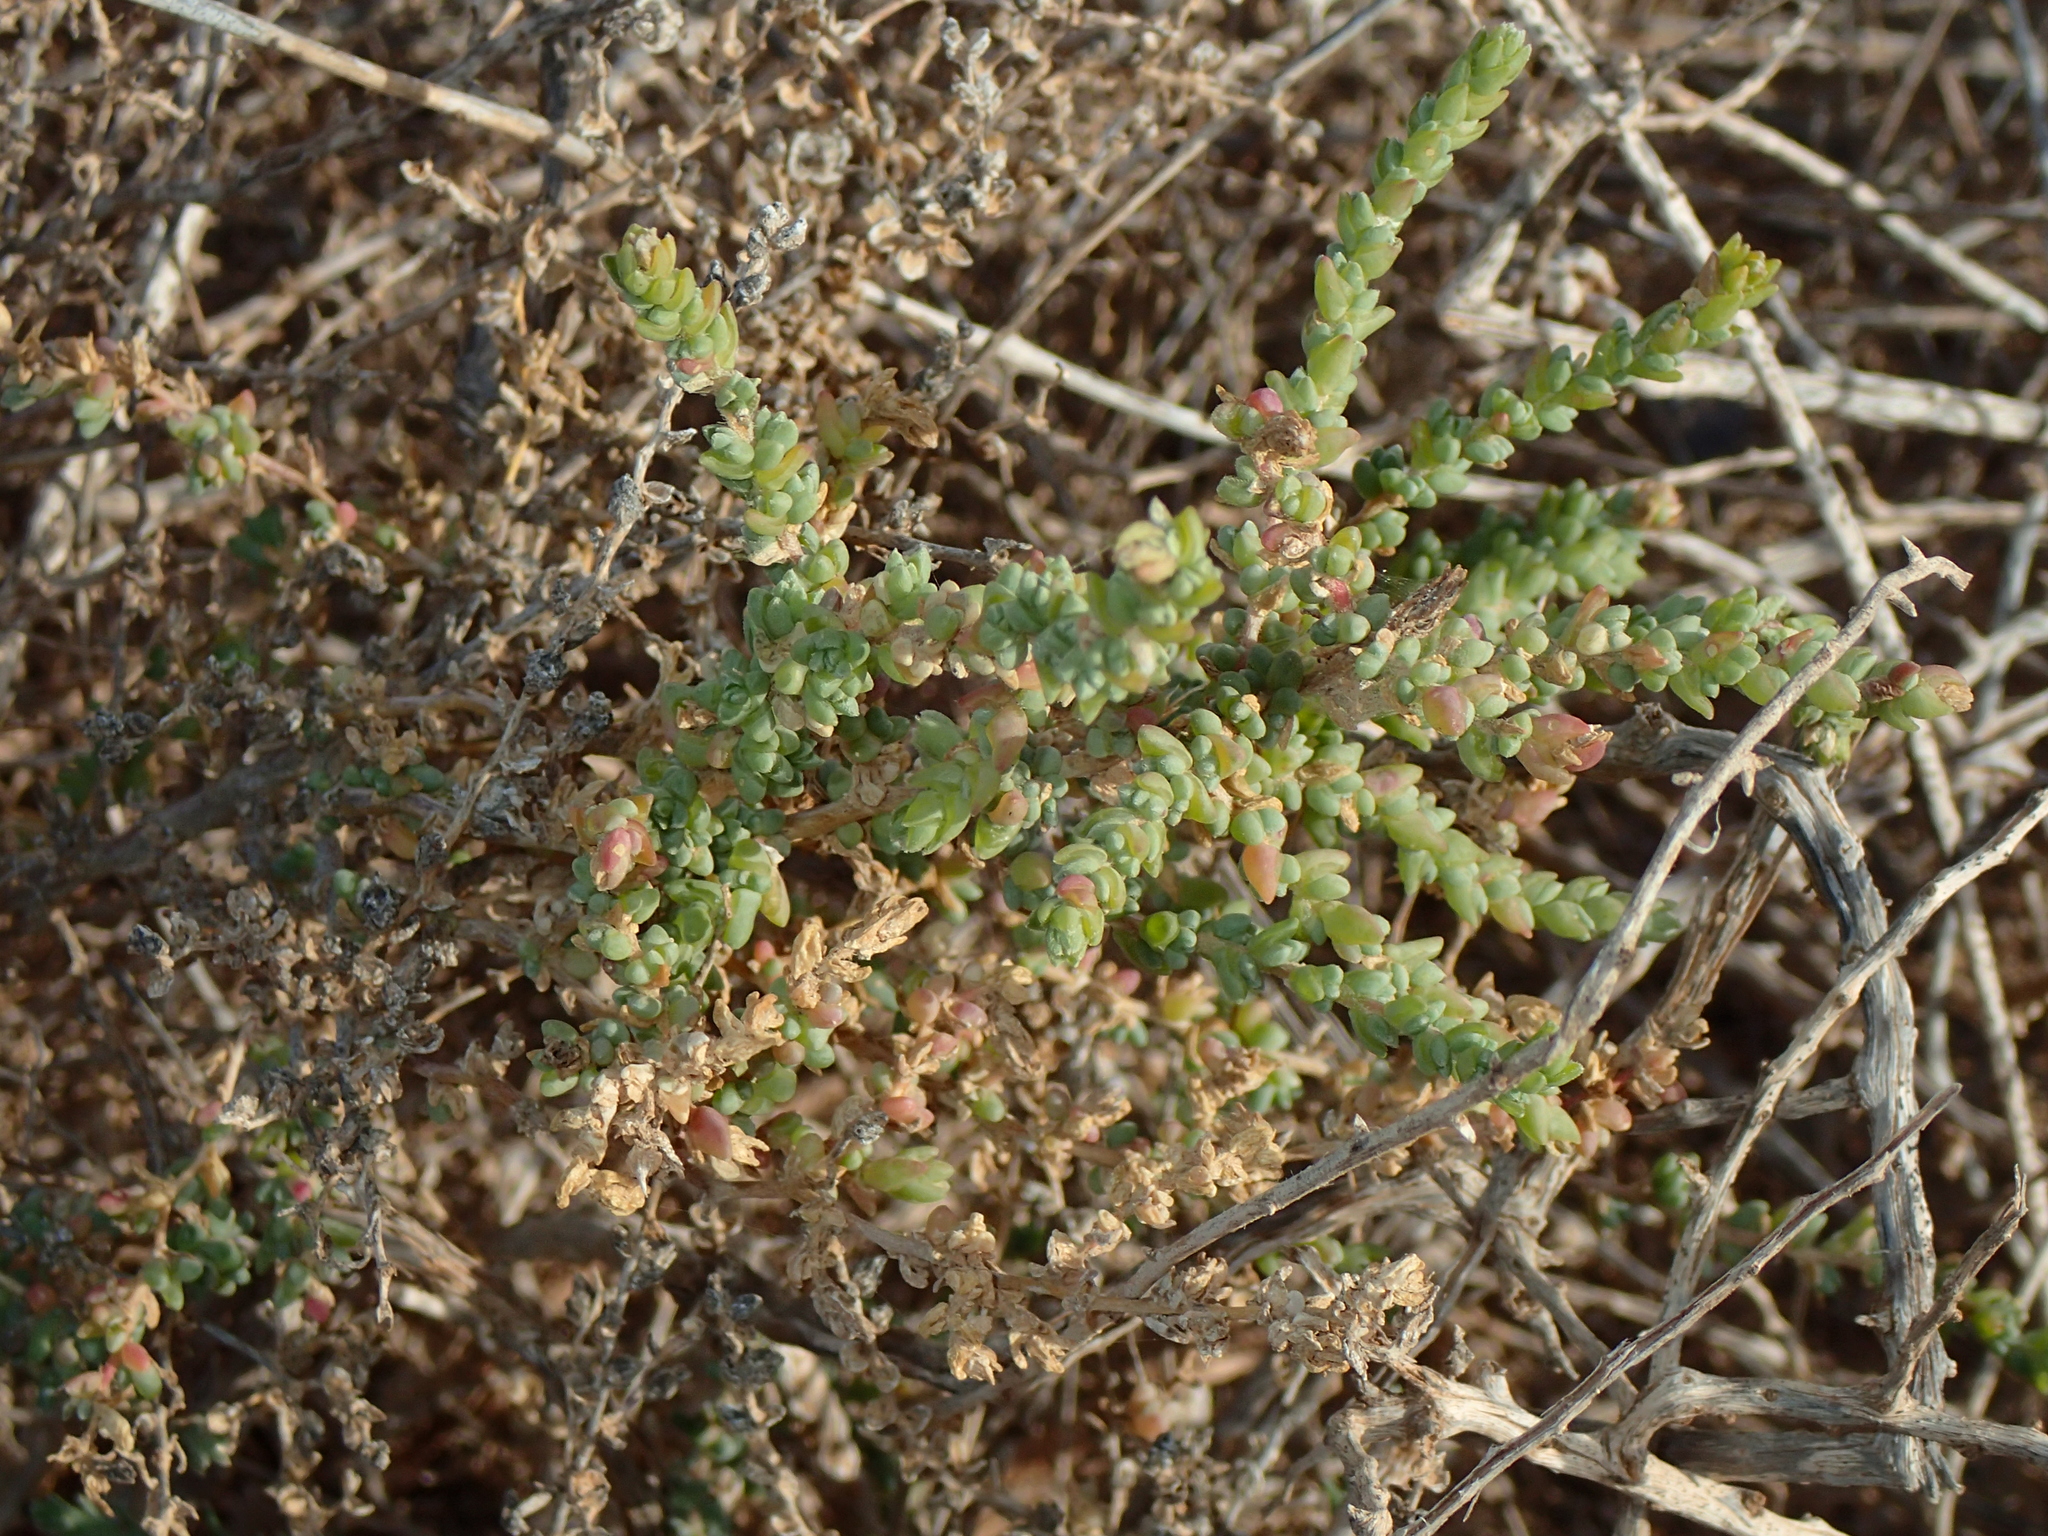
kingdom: Plantae
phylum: Tracheophyta
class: Magnoliopsida
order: Caryophyllales
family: Amaranthaceae
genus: Traganum
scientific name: Traganum moquinii
